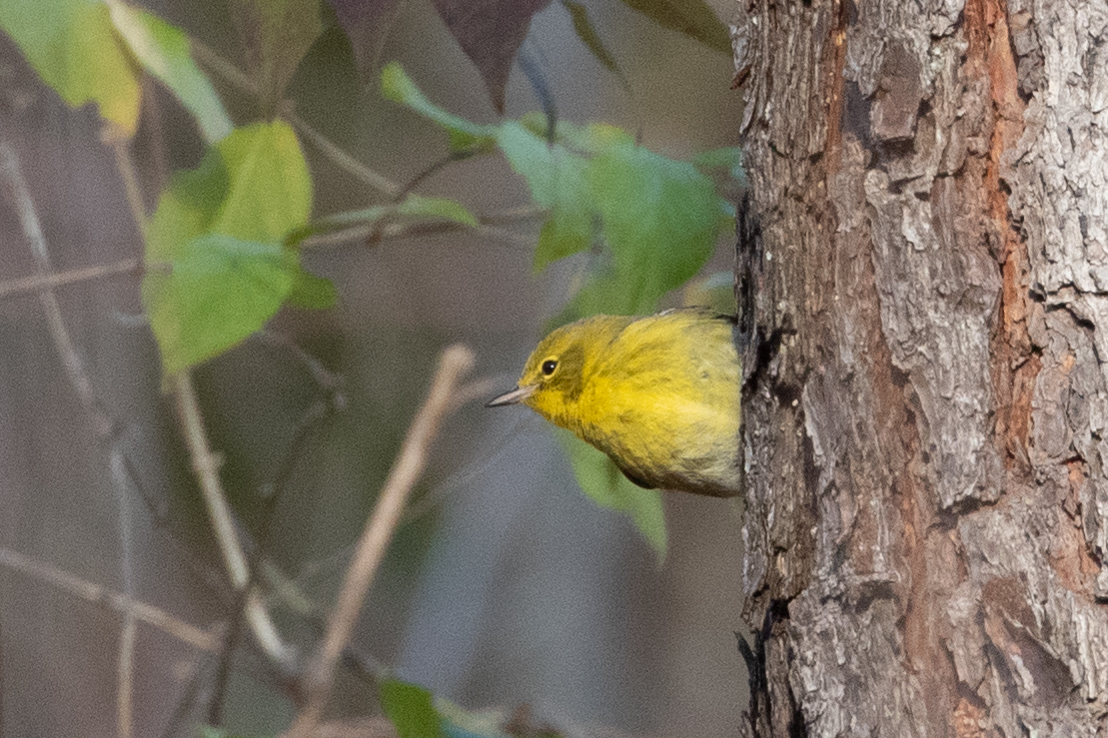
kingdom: Animalia
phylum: Chordata
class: Aves
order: Passeriformes
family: Parulidae
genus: Setophaga
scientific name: Setophaga pinus
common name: Pine warbler
